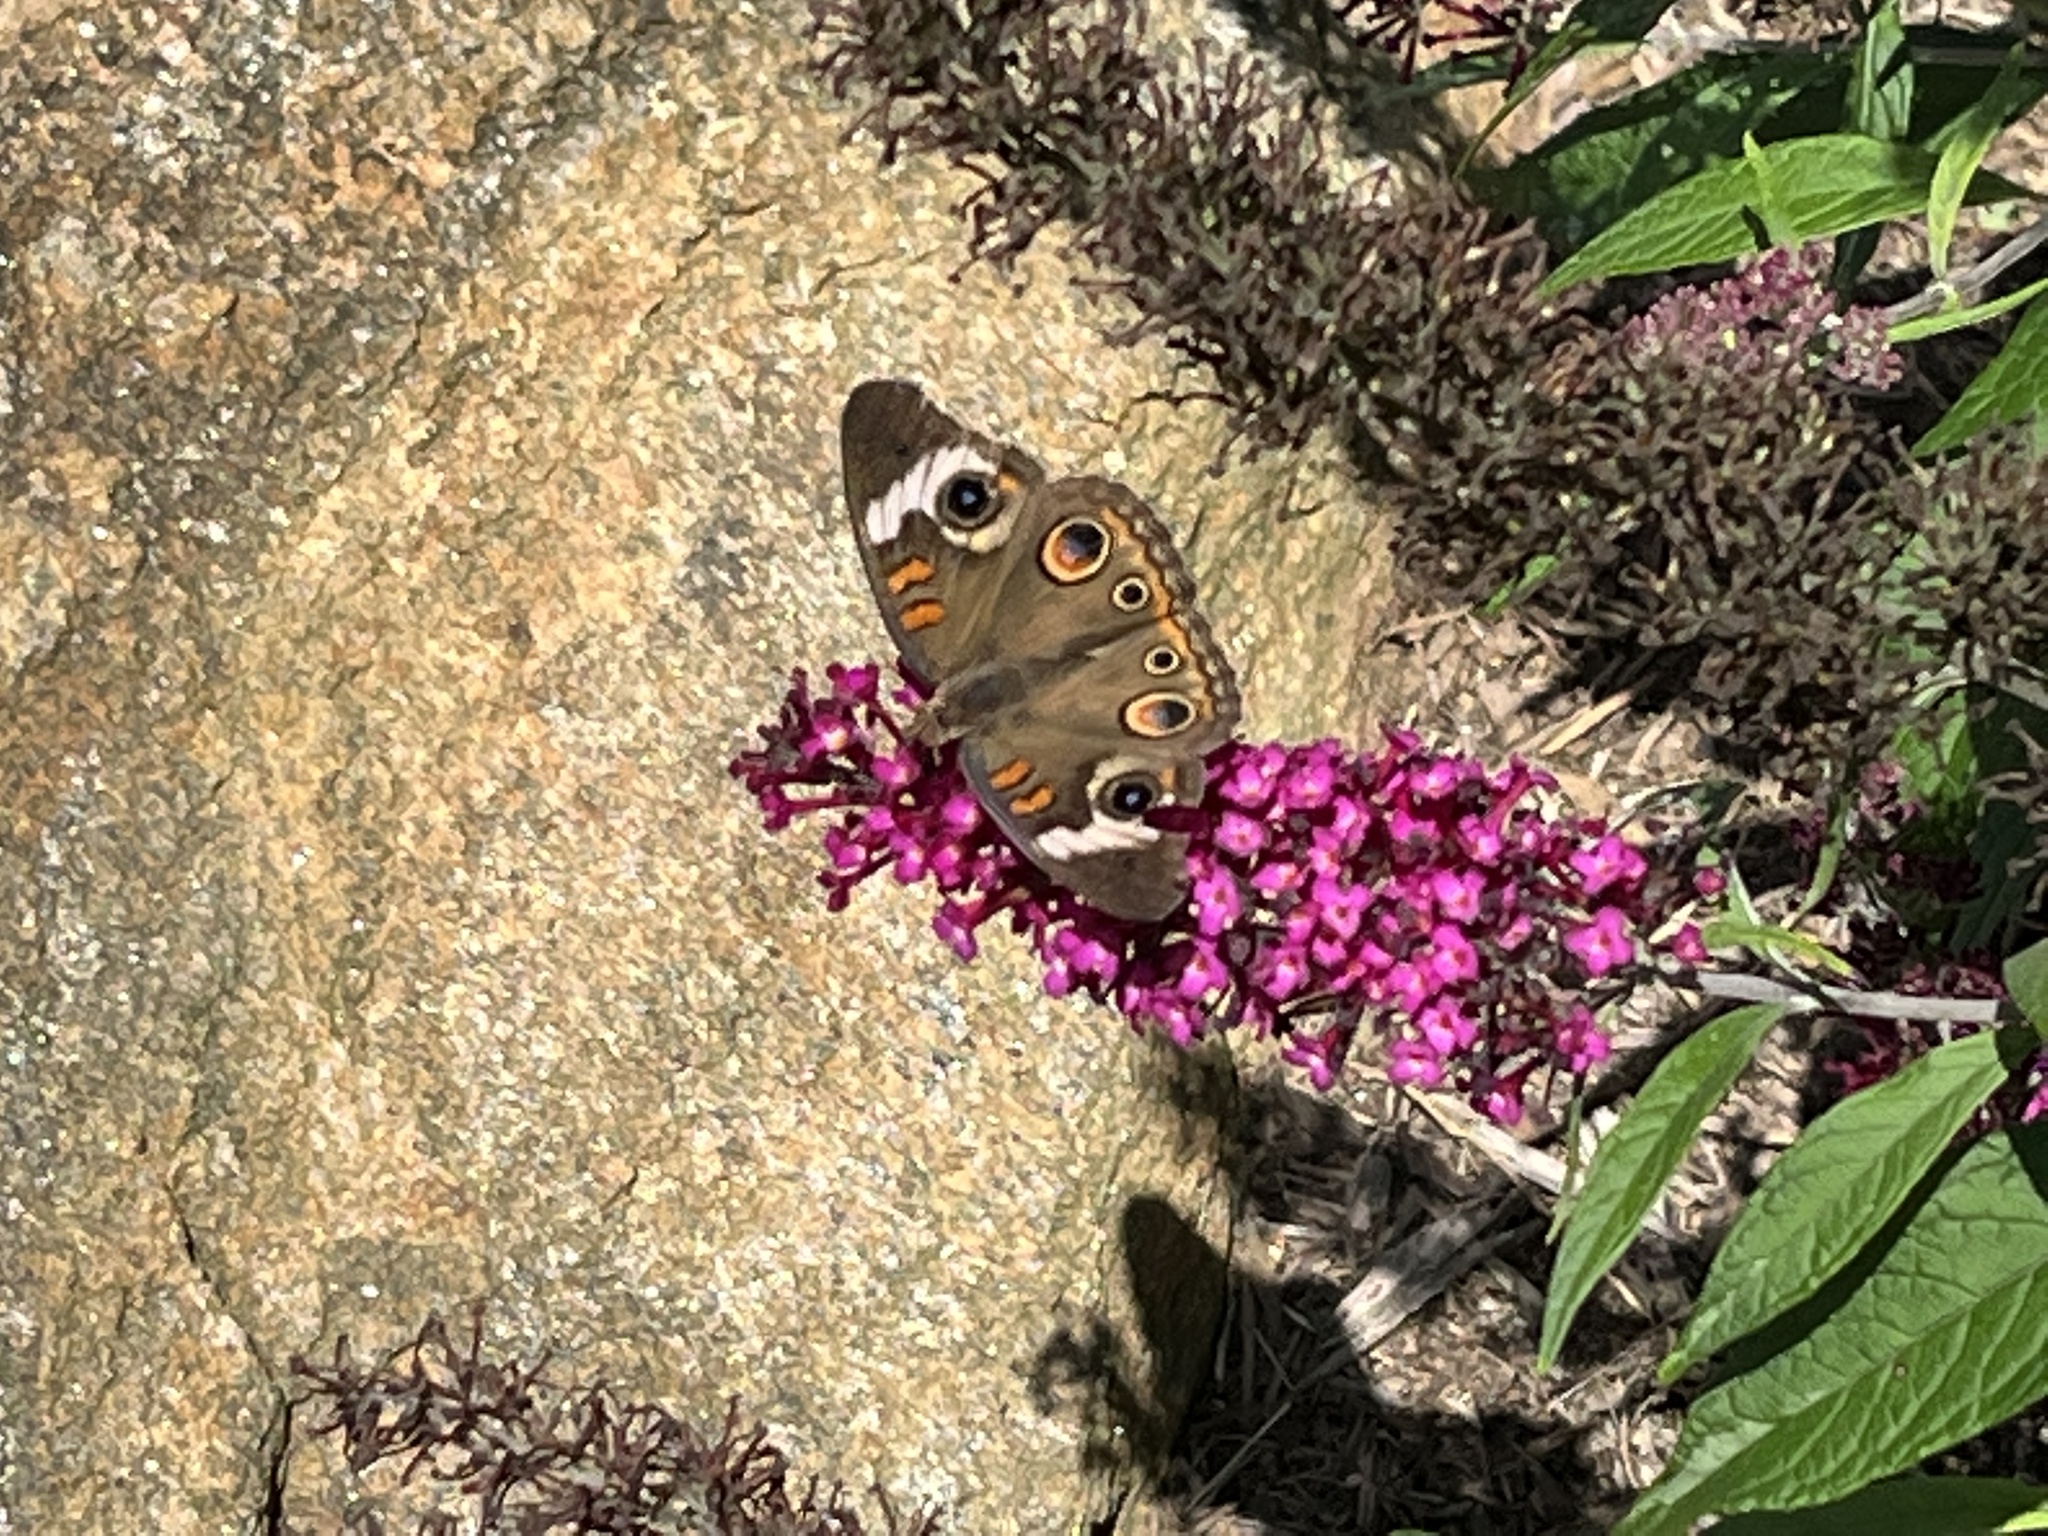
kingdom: Animalia
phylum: Arthropoda
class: Insecta
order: Lepidoptera
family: Nymphalidae
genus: Junonia
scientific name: Junonia coenia
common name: Common buckeye
